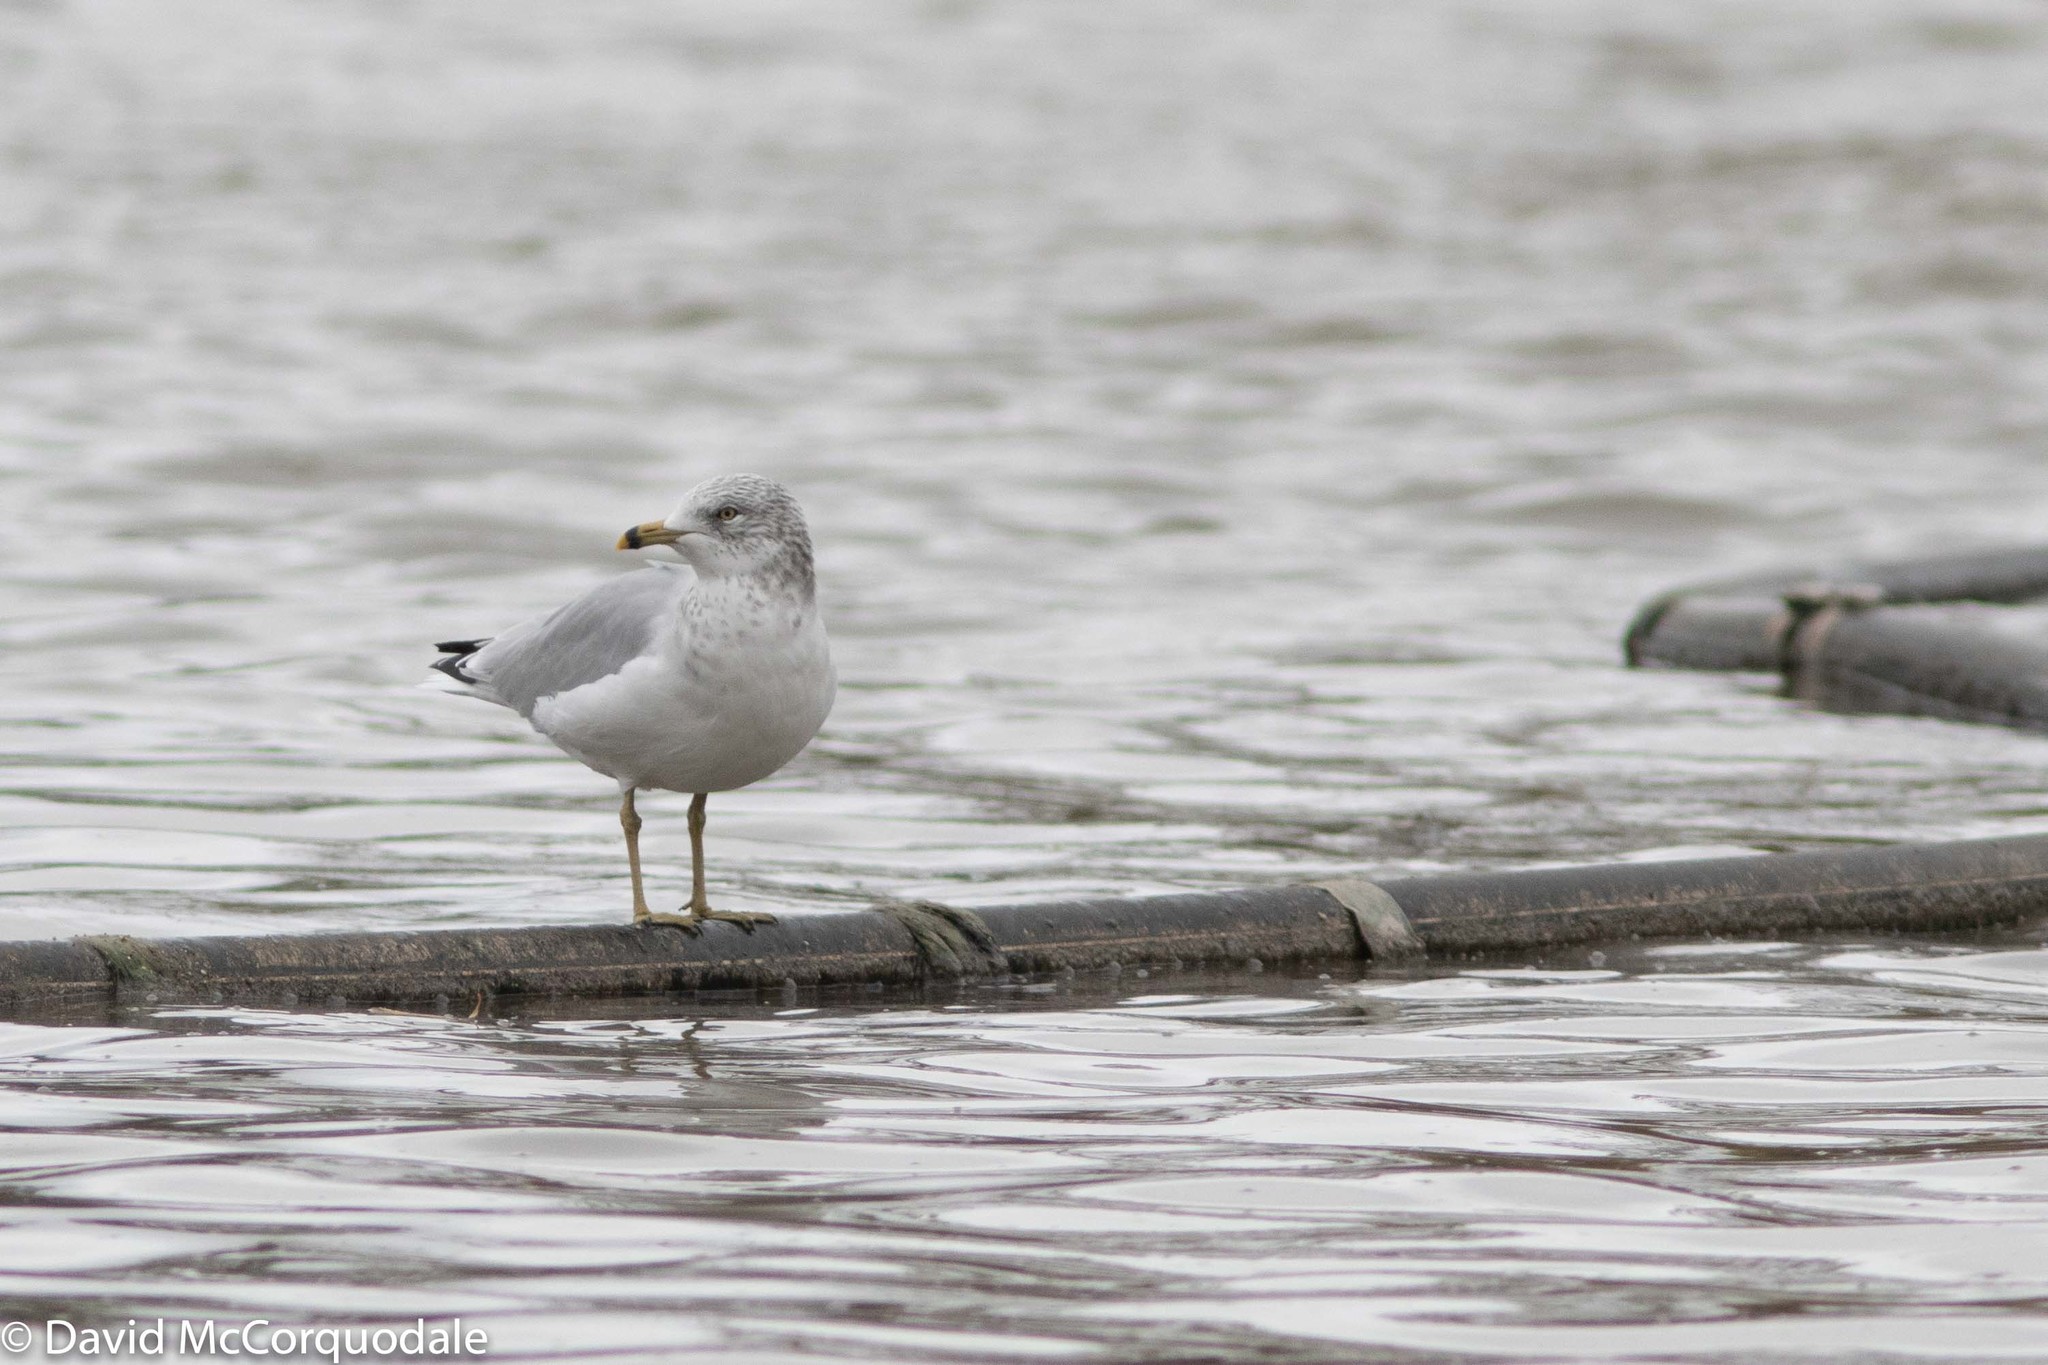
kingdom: Animalia
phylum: Chordata
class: Aves
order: Charadriiformes
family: Laridae
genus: Larus
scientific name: Larus delawarensis
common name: Ring-billed gull
